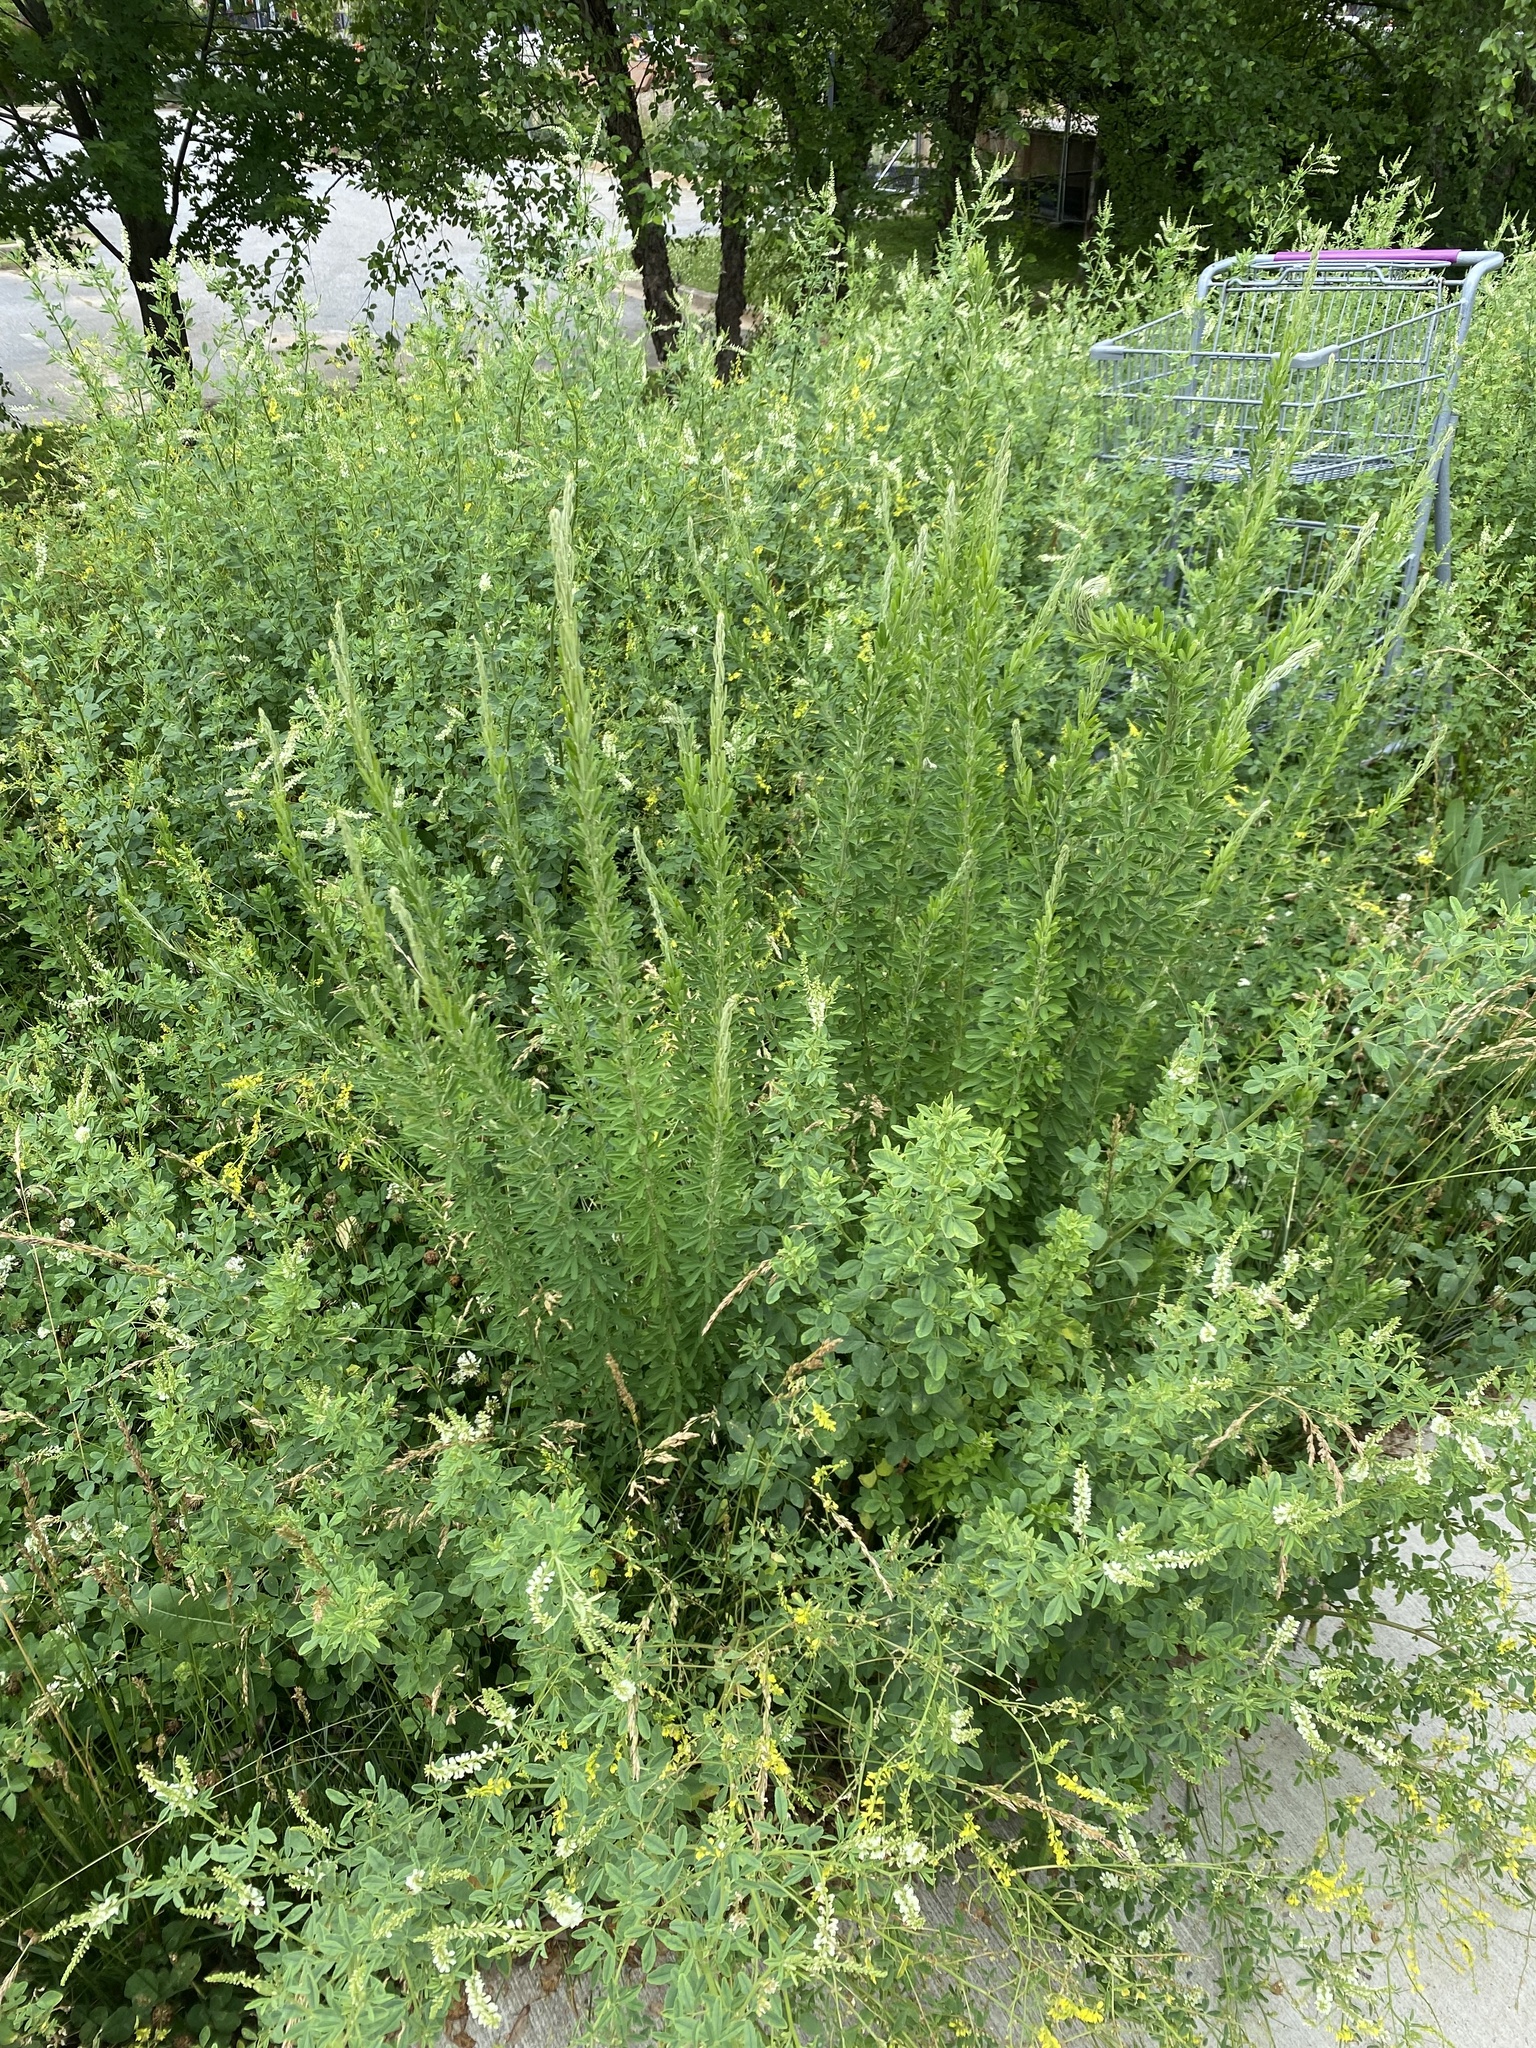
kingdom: Plantae
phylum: Tracheophyta
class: Magnoliopsida
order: Fabales
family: Fabaceae
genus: Lespedeza
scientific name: Lespedeza cuneata
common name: Chinese bush-clover
